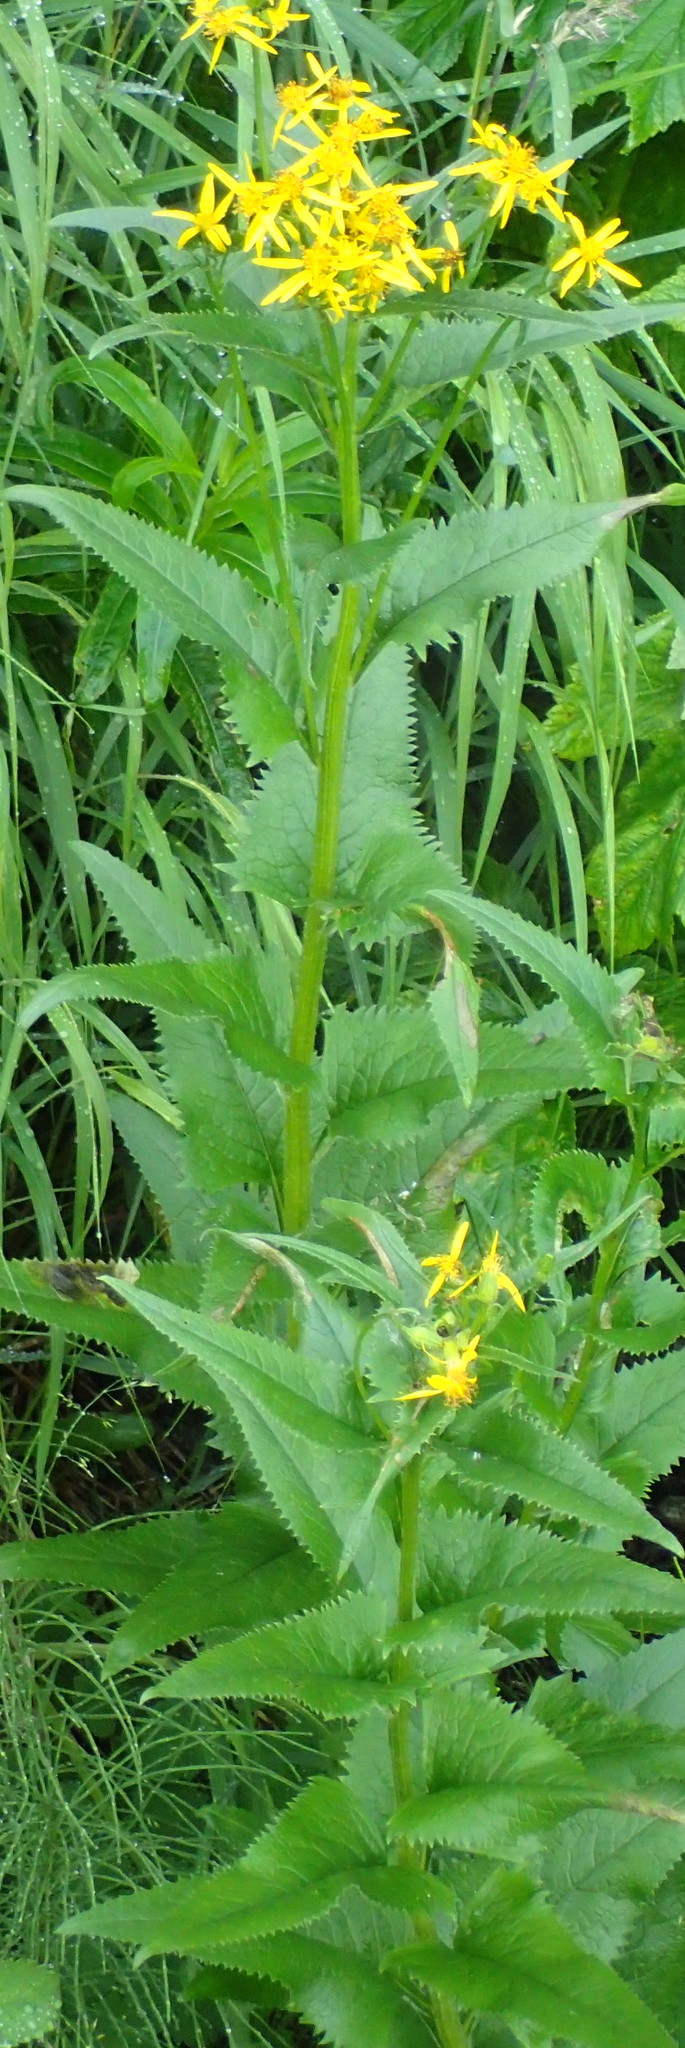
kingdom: Plantae
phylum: Tracheophyta
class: Magnoliopsida
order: Asterales
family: Asteraceae
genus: Senecio
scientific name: Senecio triangularis
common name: Arrowleaf butterweed
